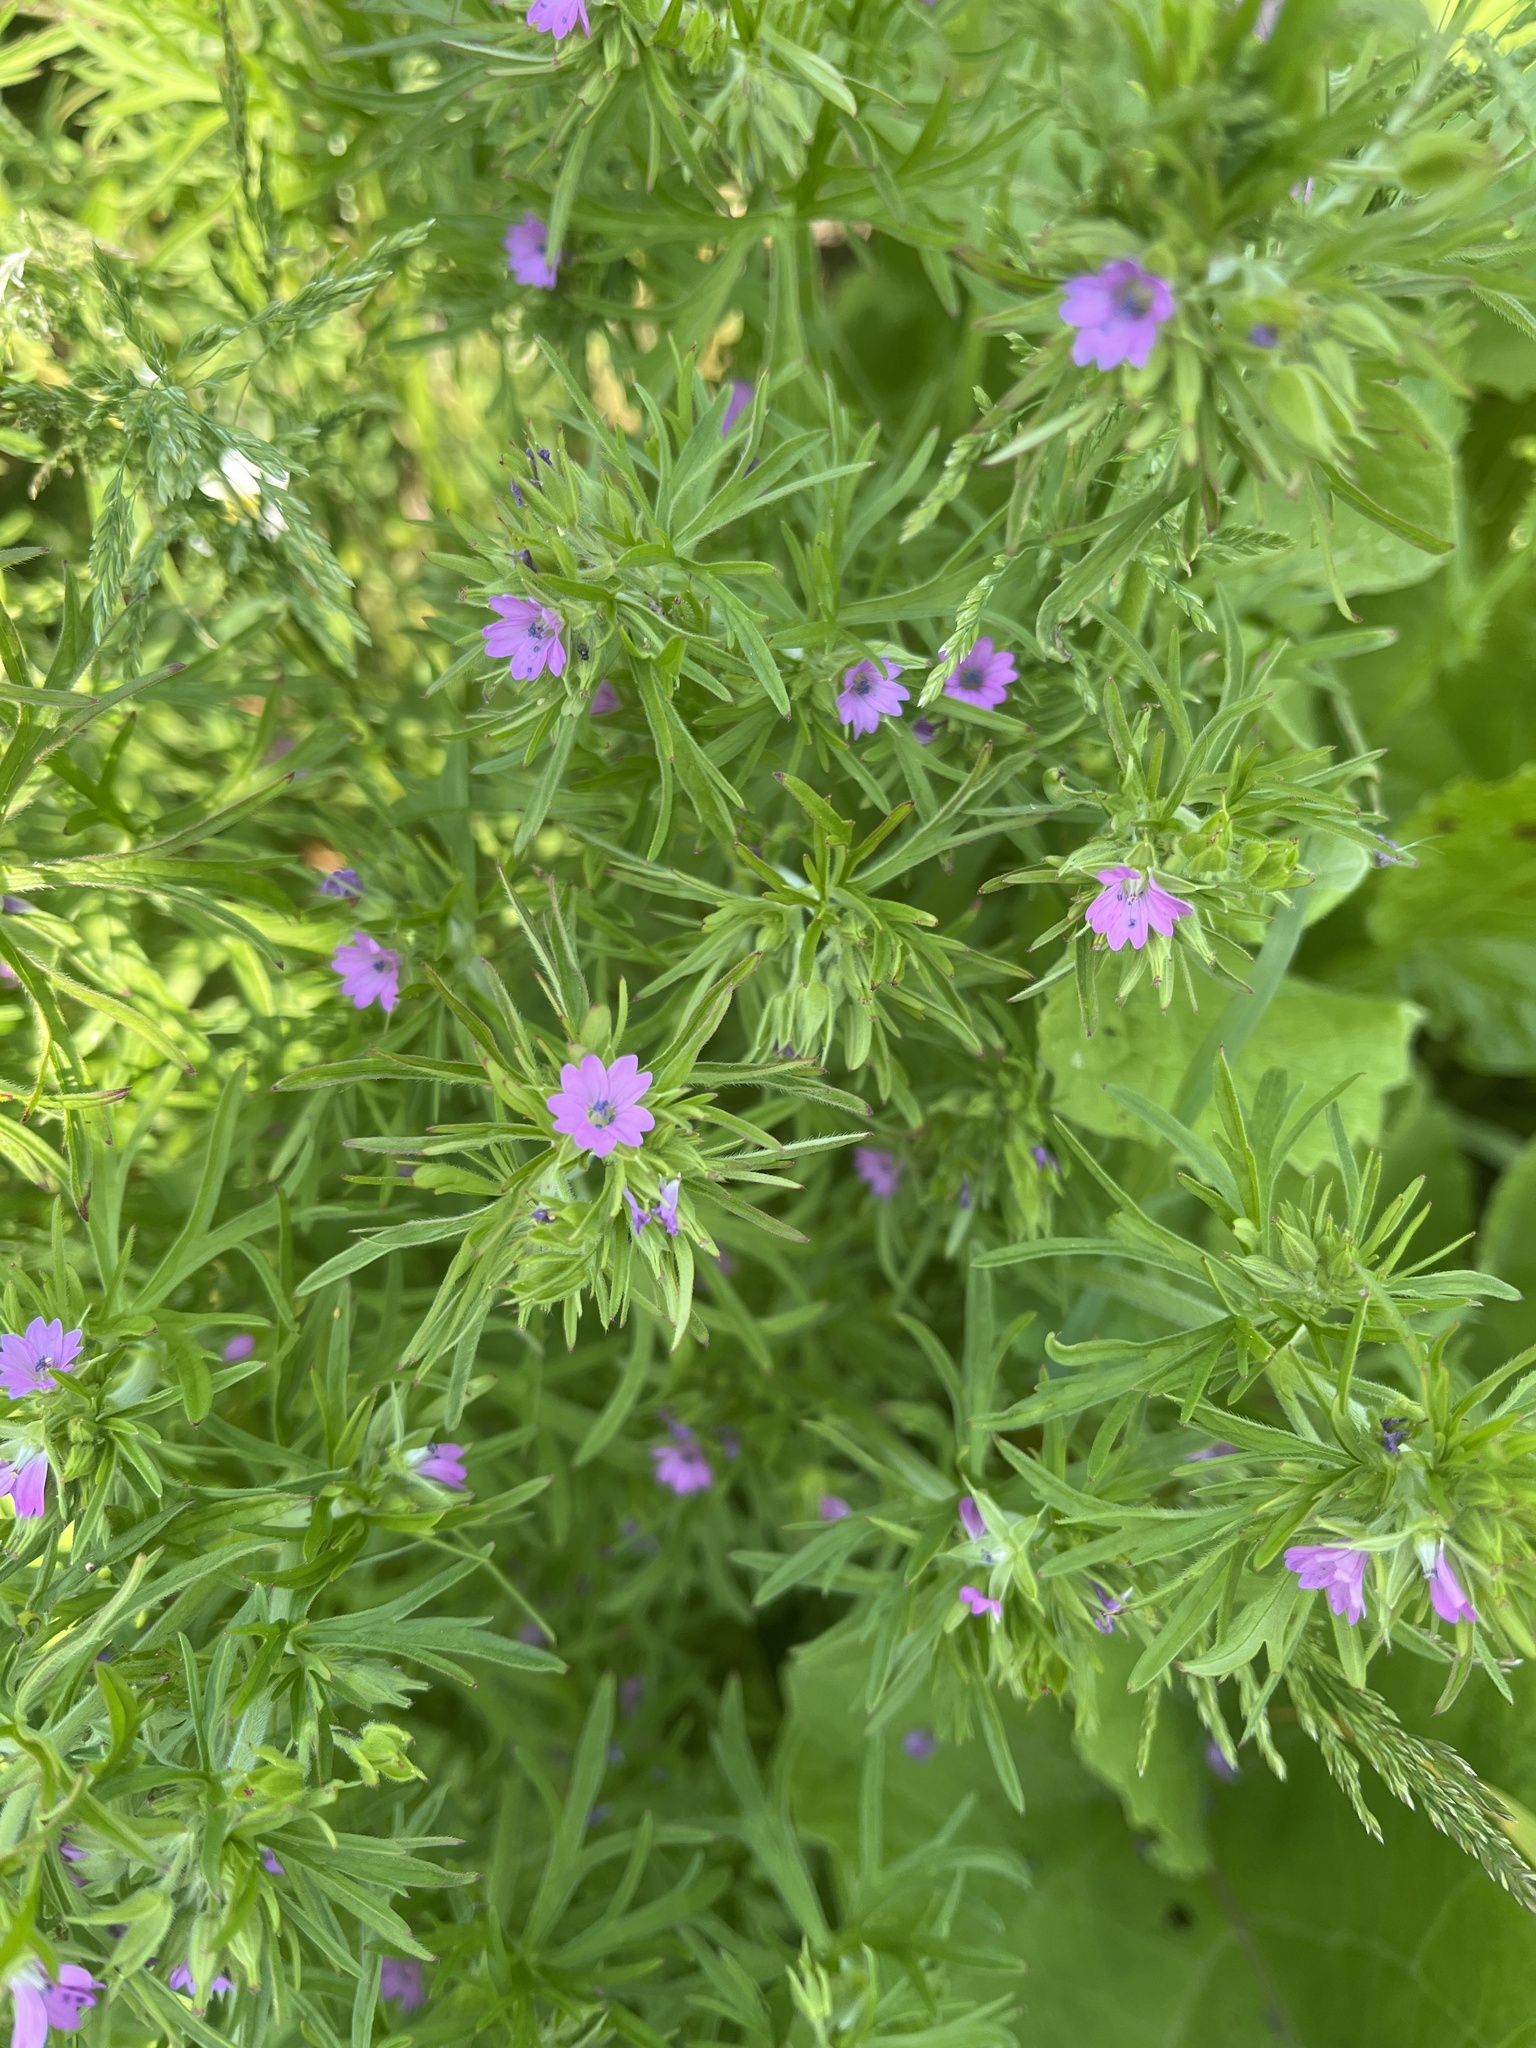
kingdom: Plantae
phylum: Tracheophyta
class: Magnoliopsida
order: Geraniales
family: Geraniaceae
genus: Geranium
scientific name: Geranium dissectum
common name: Cut-leaved crane's-bill
